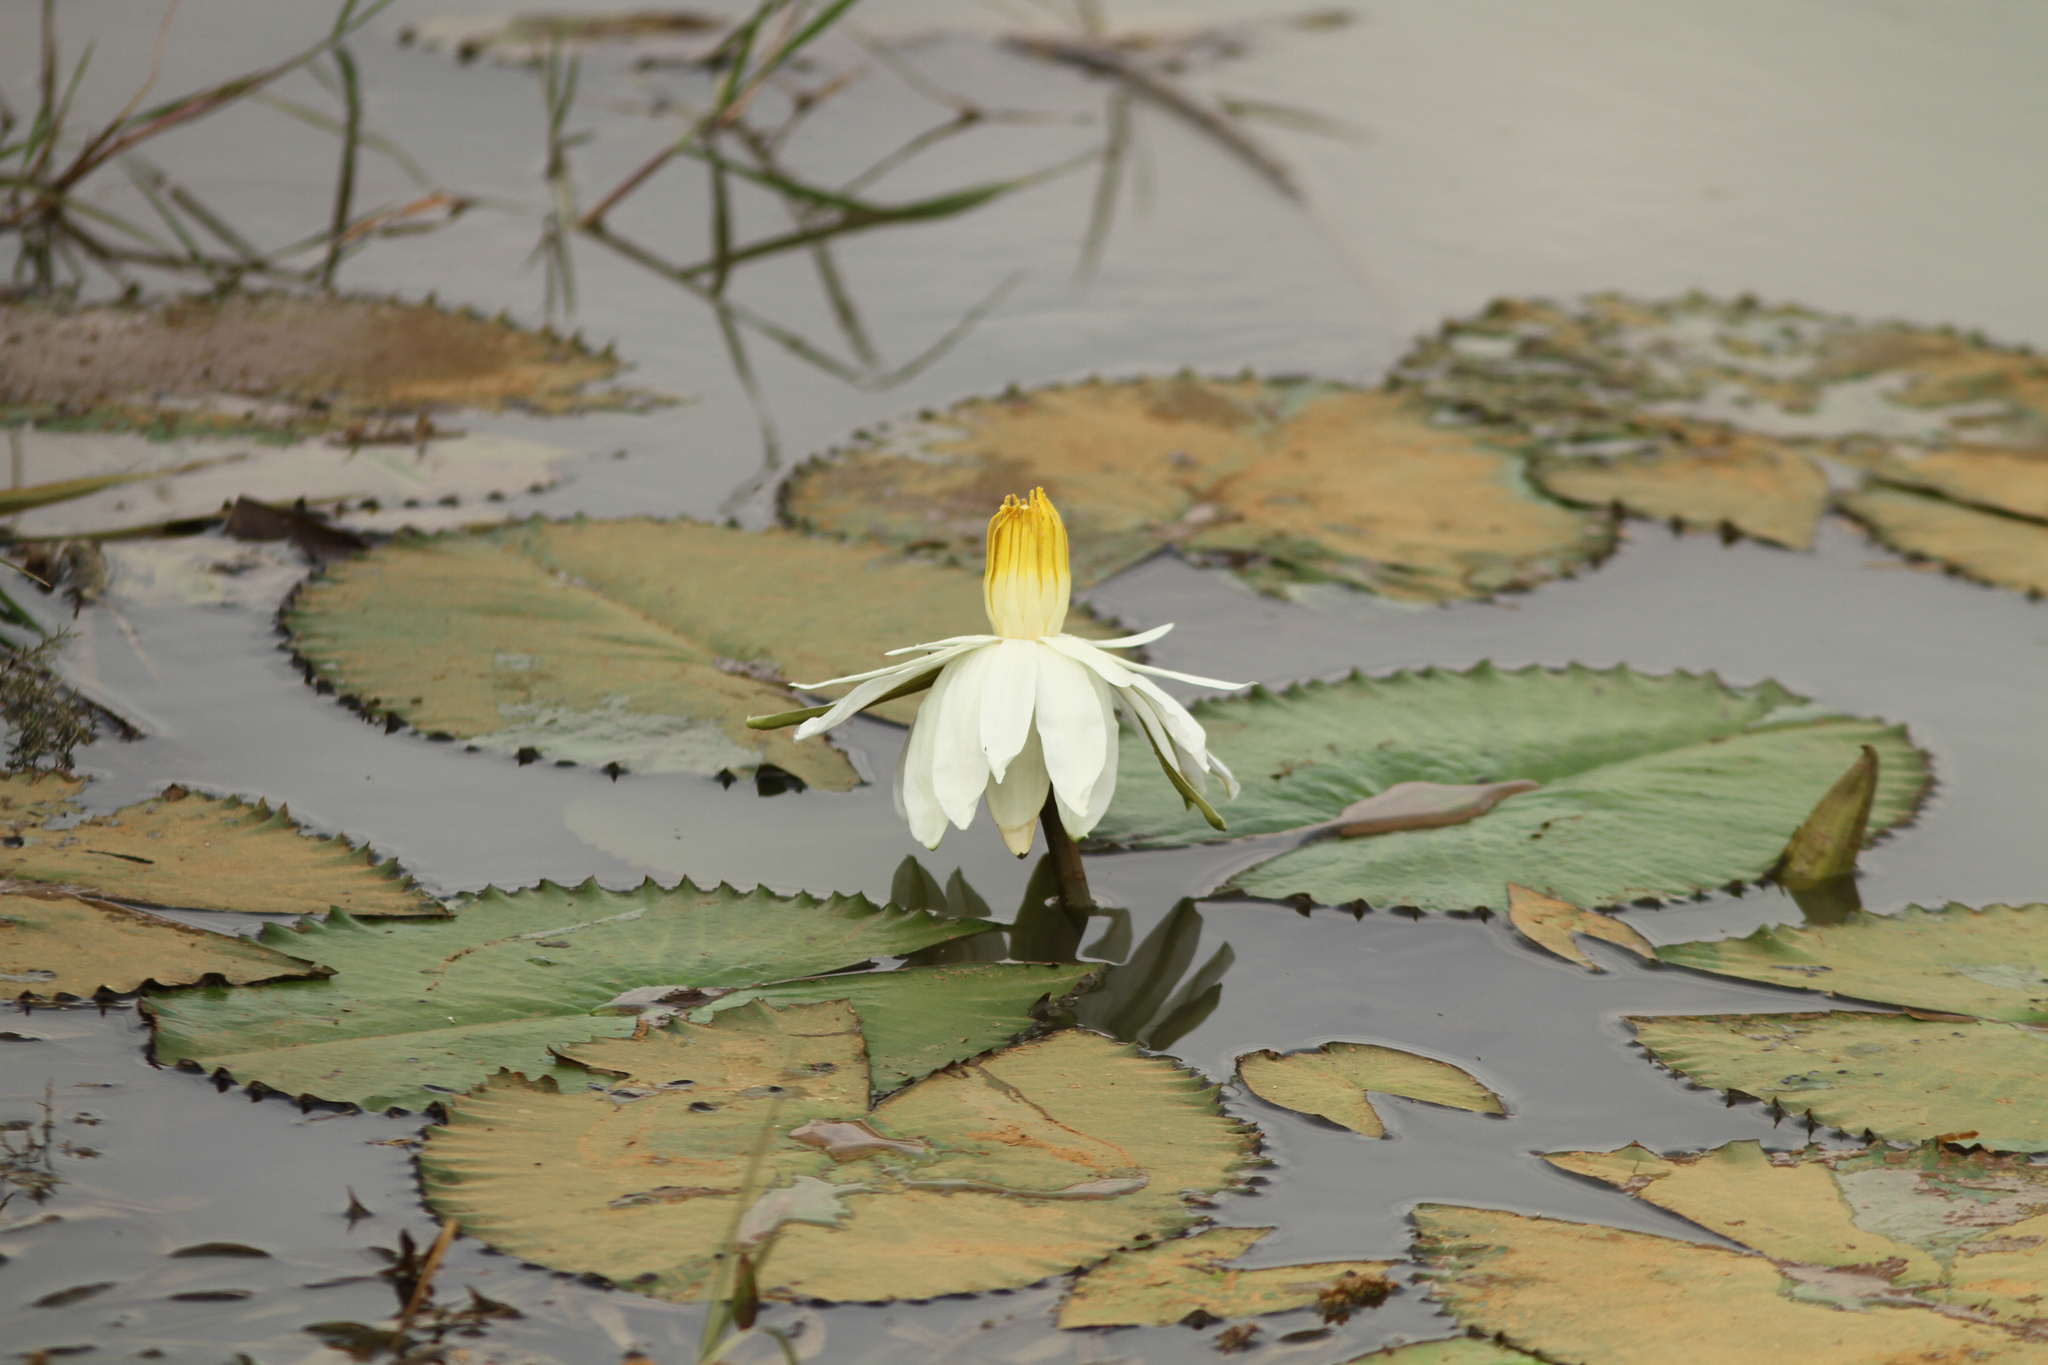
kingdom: Plantae
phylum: Tracheophyta
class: Magnoliopsida
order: Nymphaeales
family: Nymphaeaceae
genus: Nymphaea
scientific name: Nymphaea lotus
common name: White egyptian lotus
